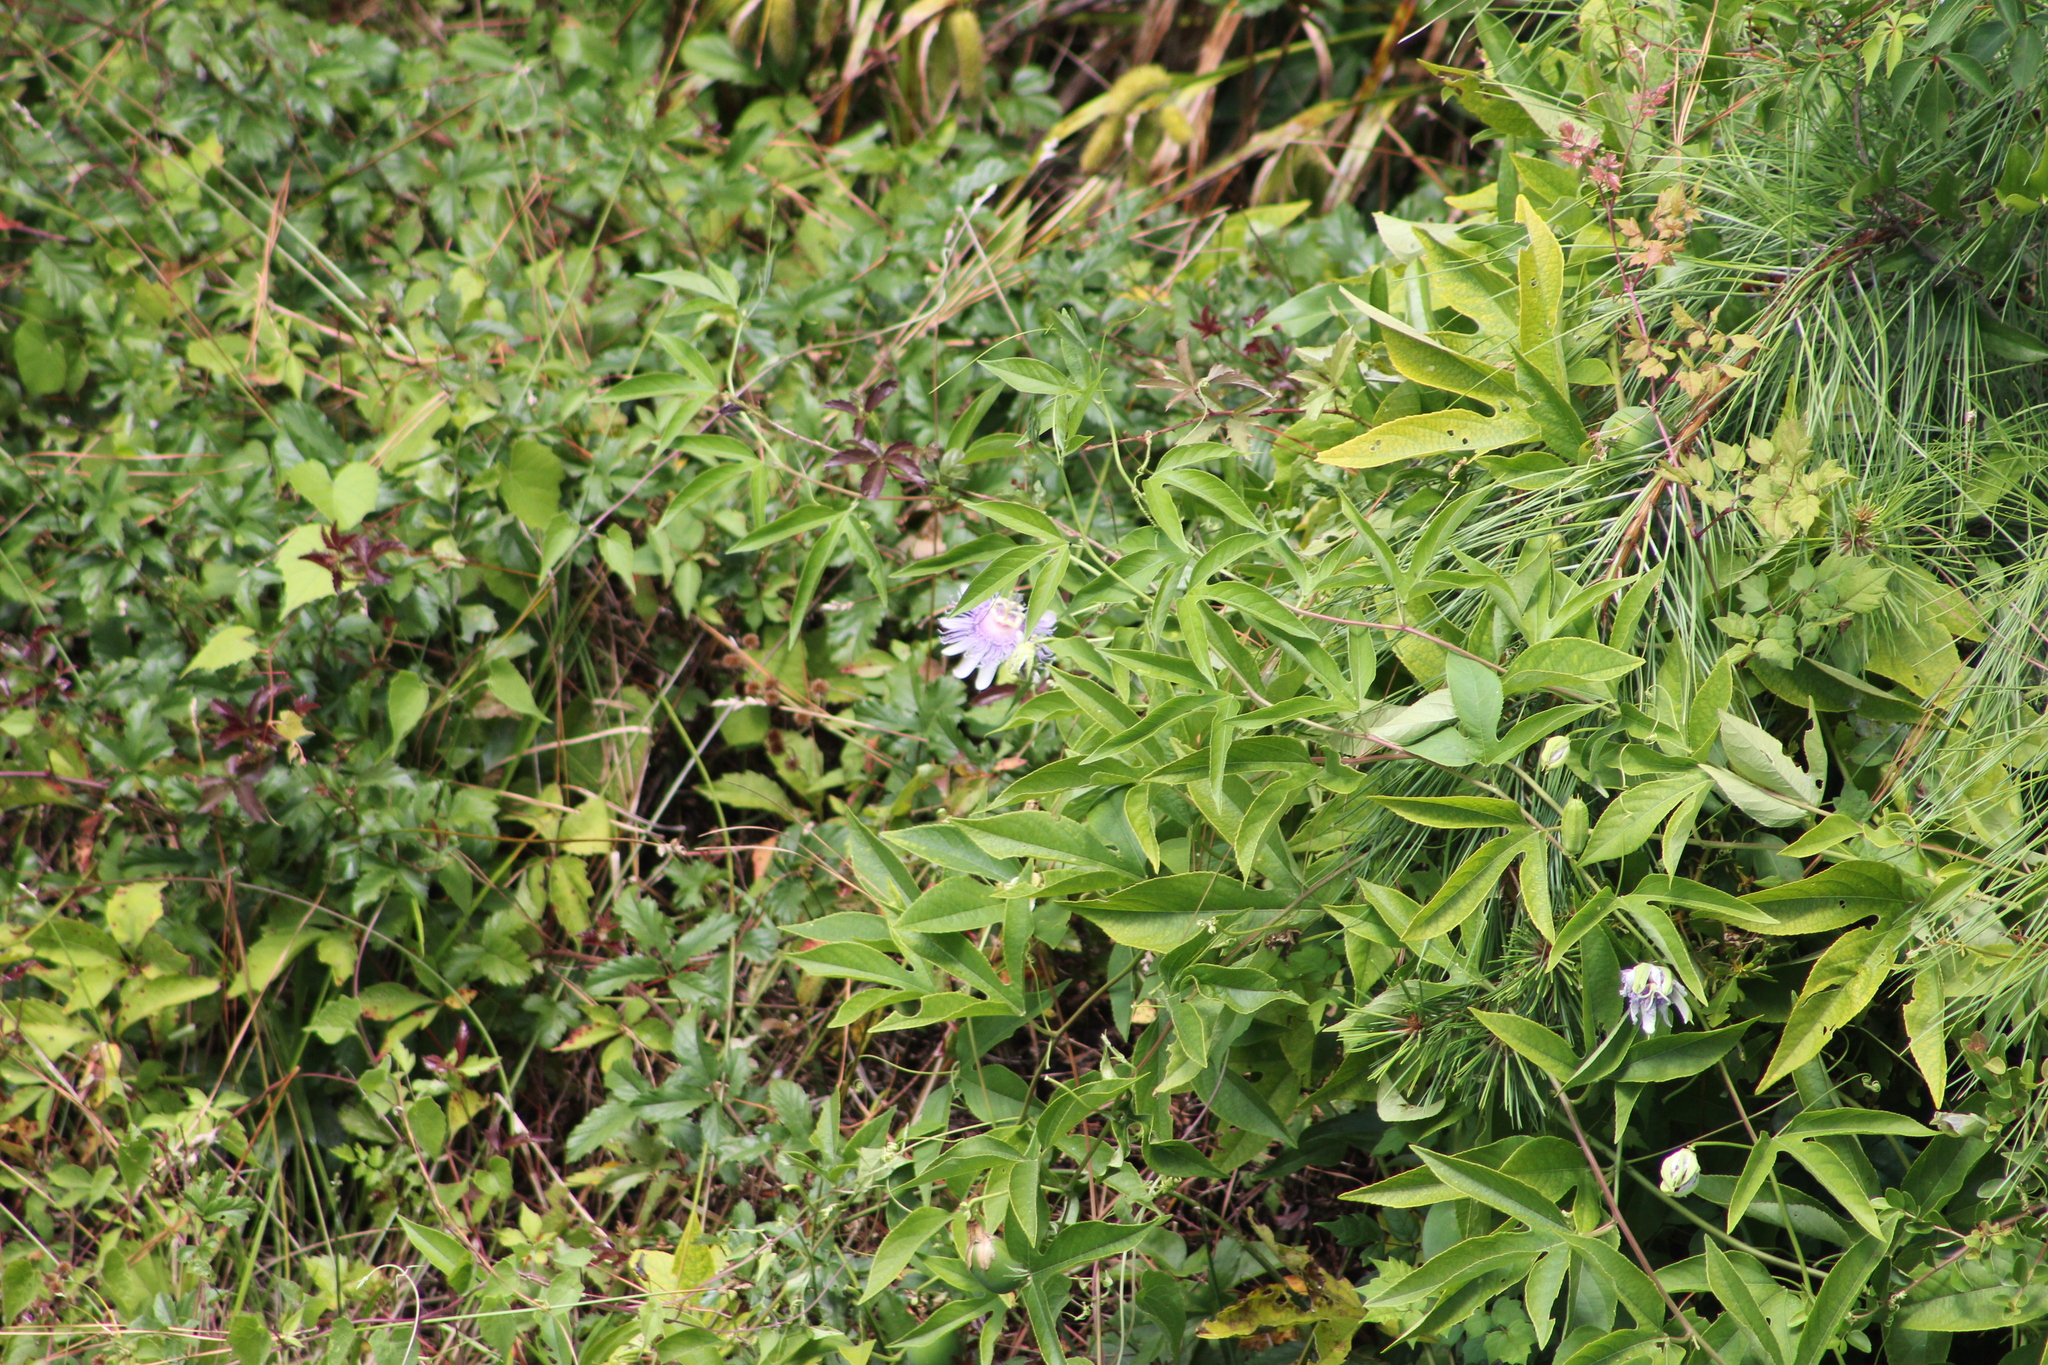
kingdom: Plantae
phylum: Tracheophyta
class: Magnoliopsida
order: Malpighiales
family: Passifloraceae
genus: Passiflora
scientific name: Passiflora incarnata
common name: Apricot-vine
